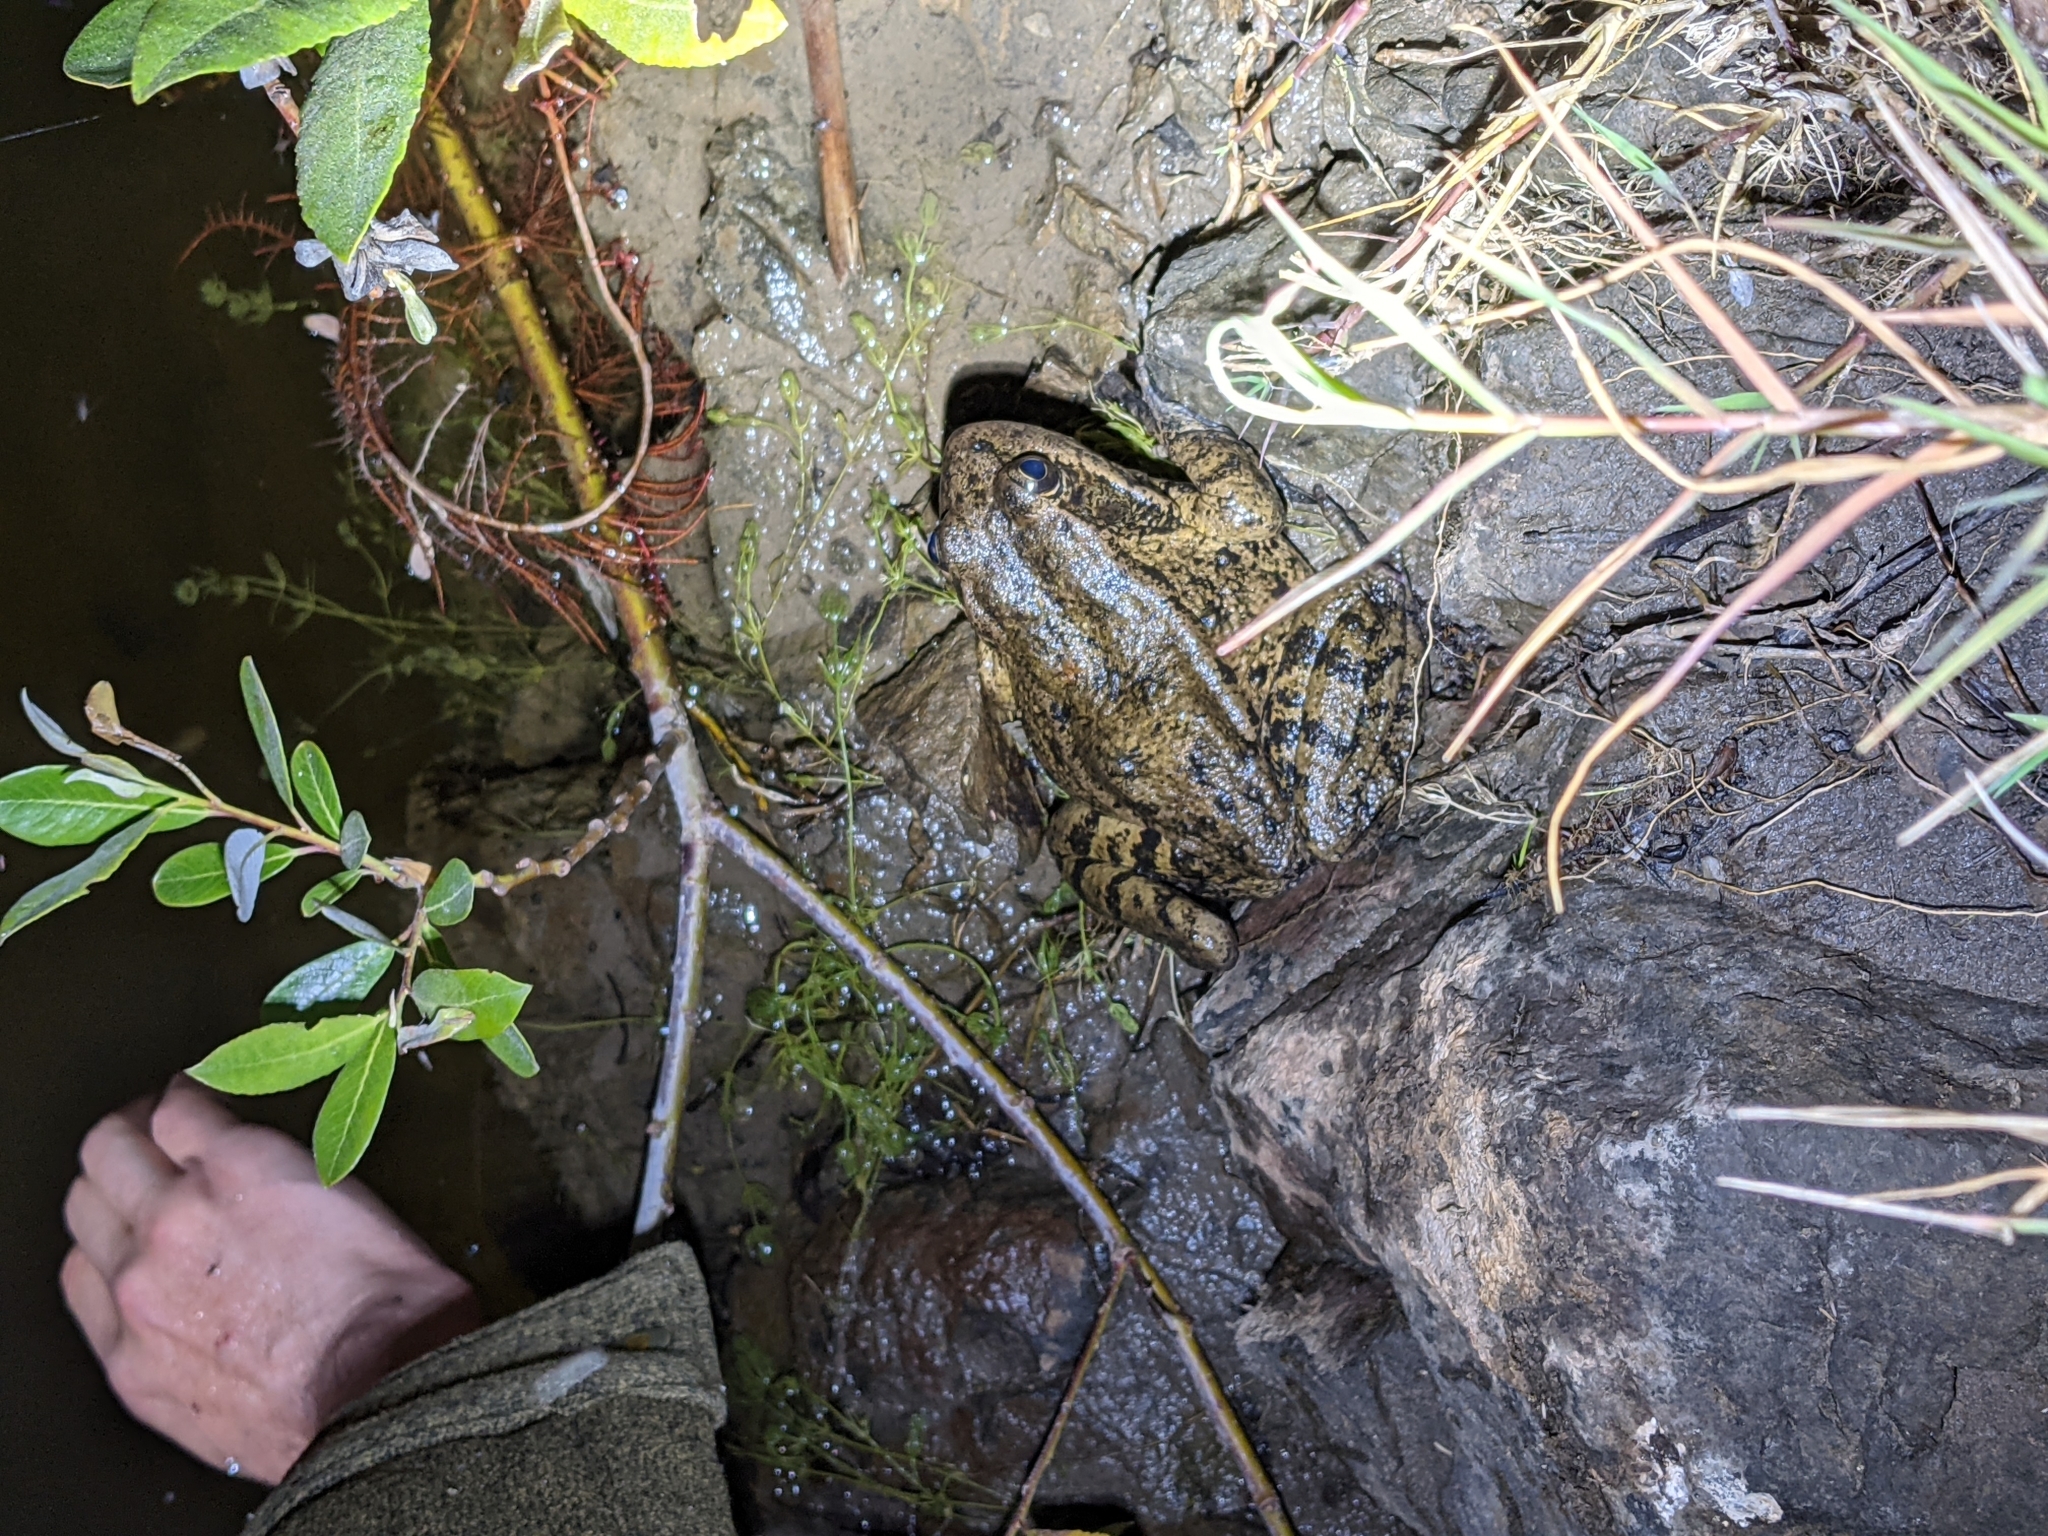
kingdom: Animalia
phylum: Chordata
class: Amphibia
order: Anura
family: Ranidae
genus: Rana
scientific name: Rana draytonii
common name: California red-legged frog
